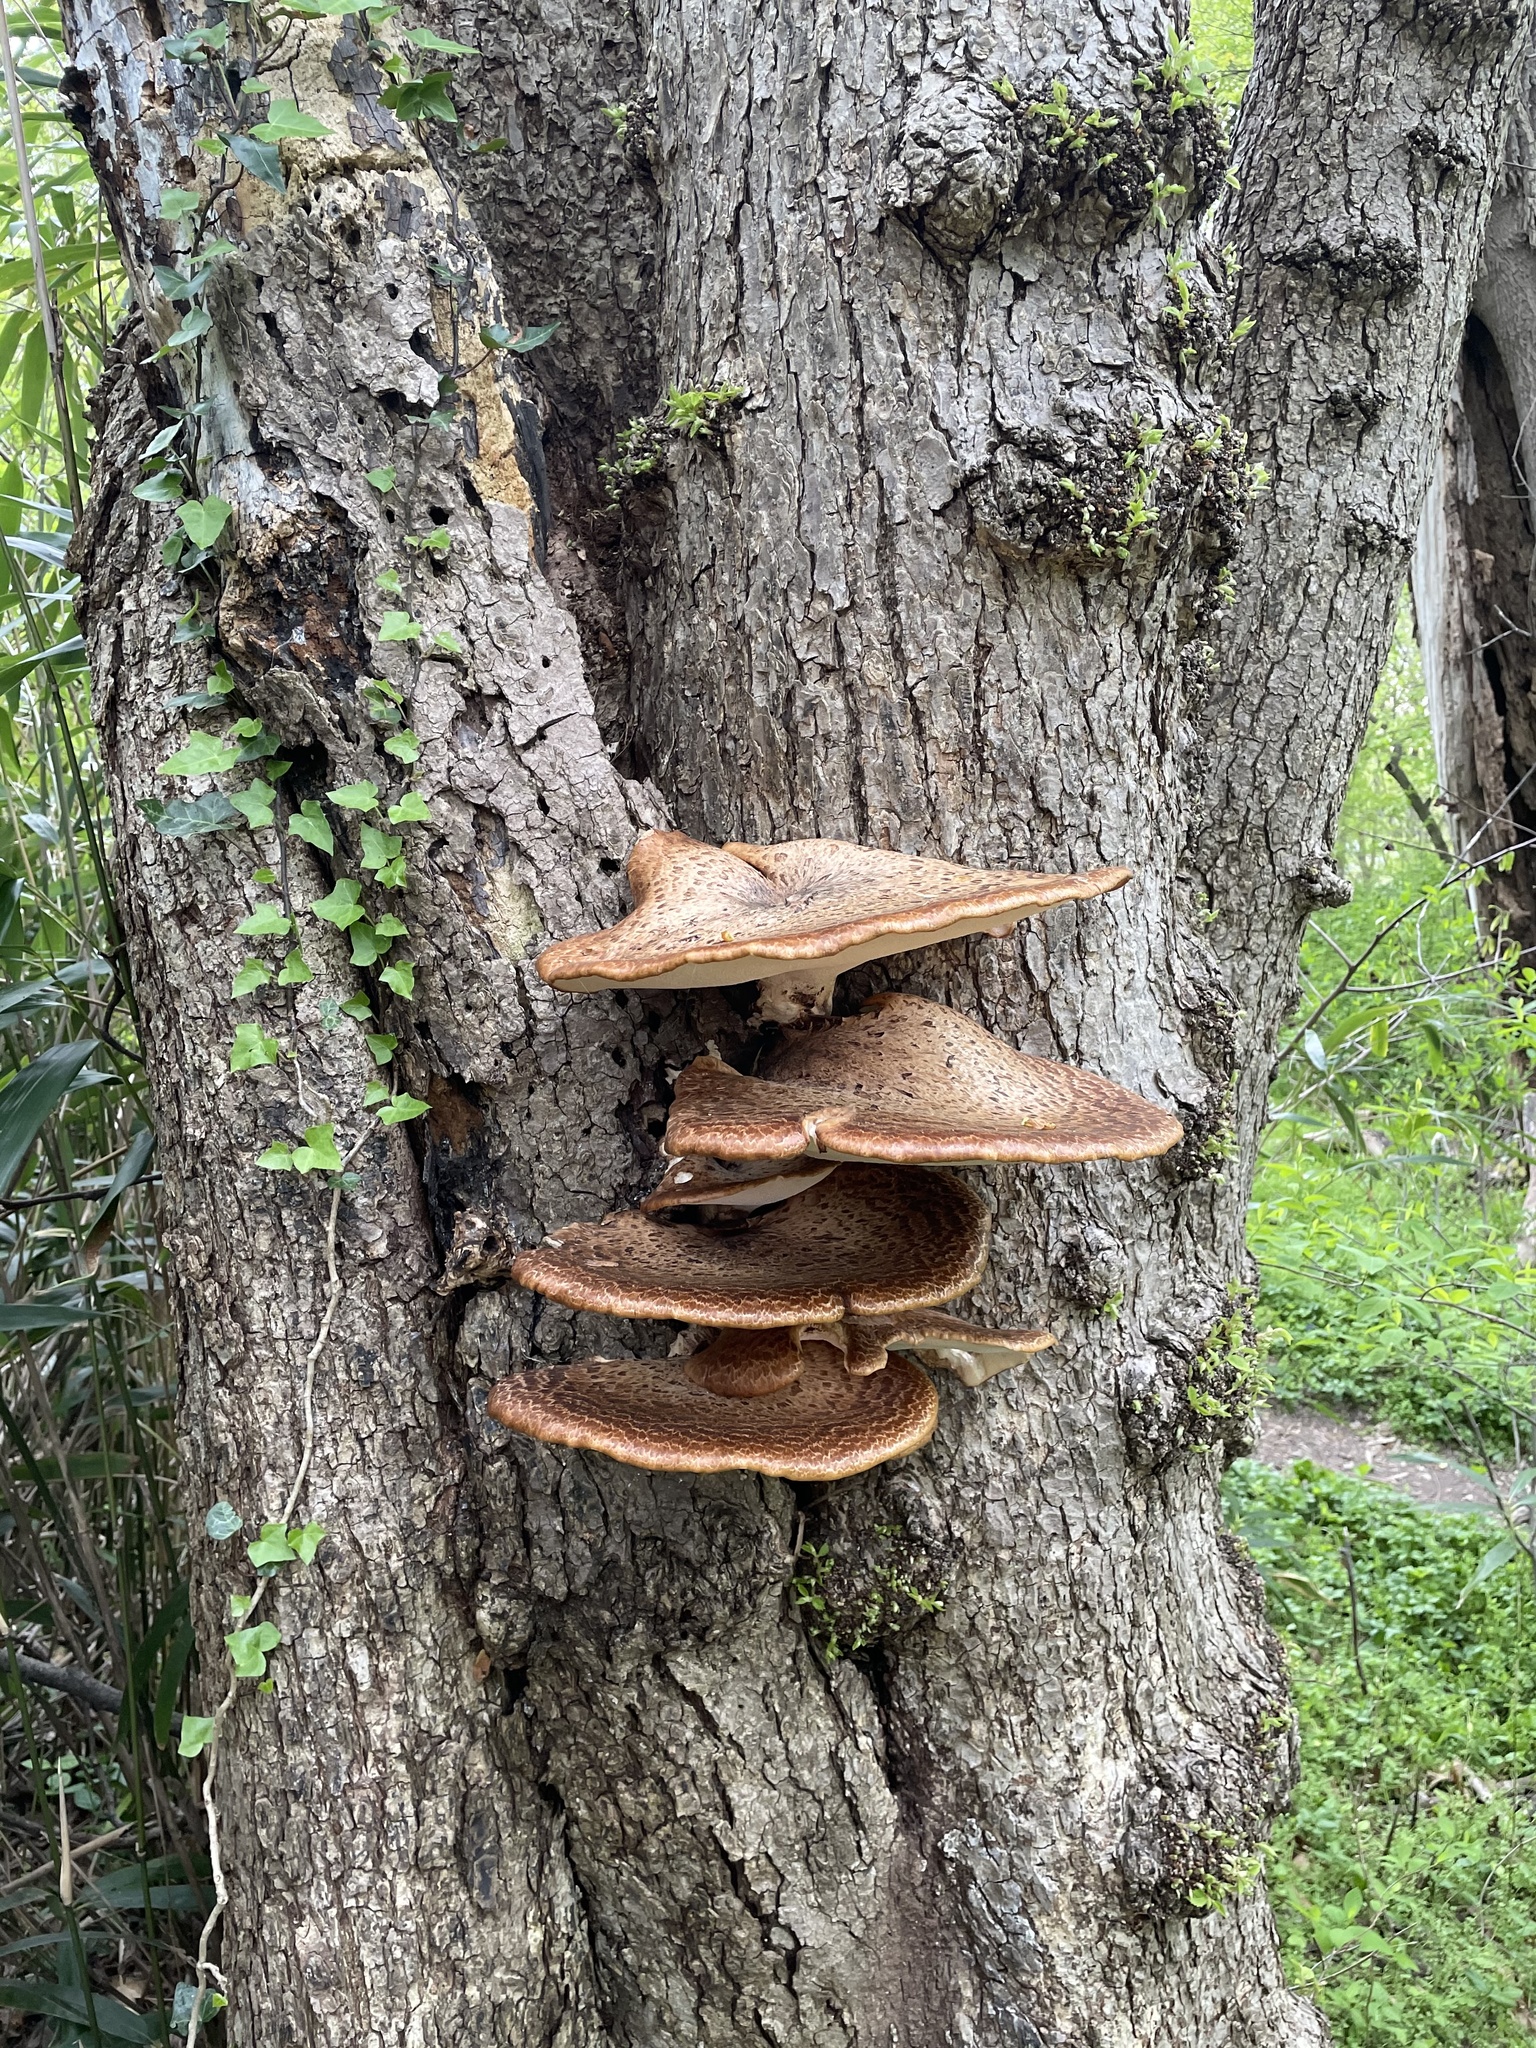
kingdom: Fungi
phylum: Basidiomycota
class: Agaricomycetes
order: Polyporales
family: Polyporaceae
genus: Cerioporus
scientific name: Cerioporus squamosus
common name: Dryad's saddle
